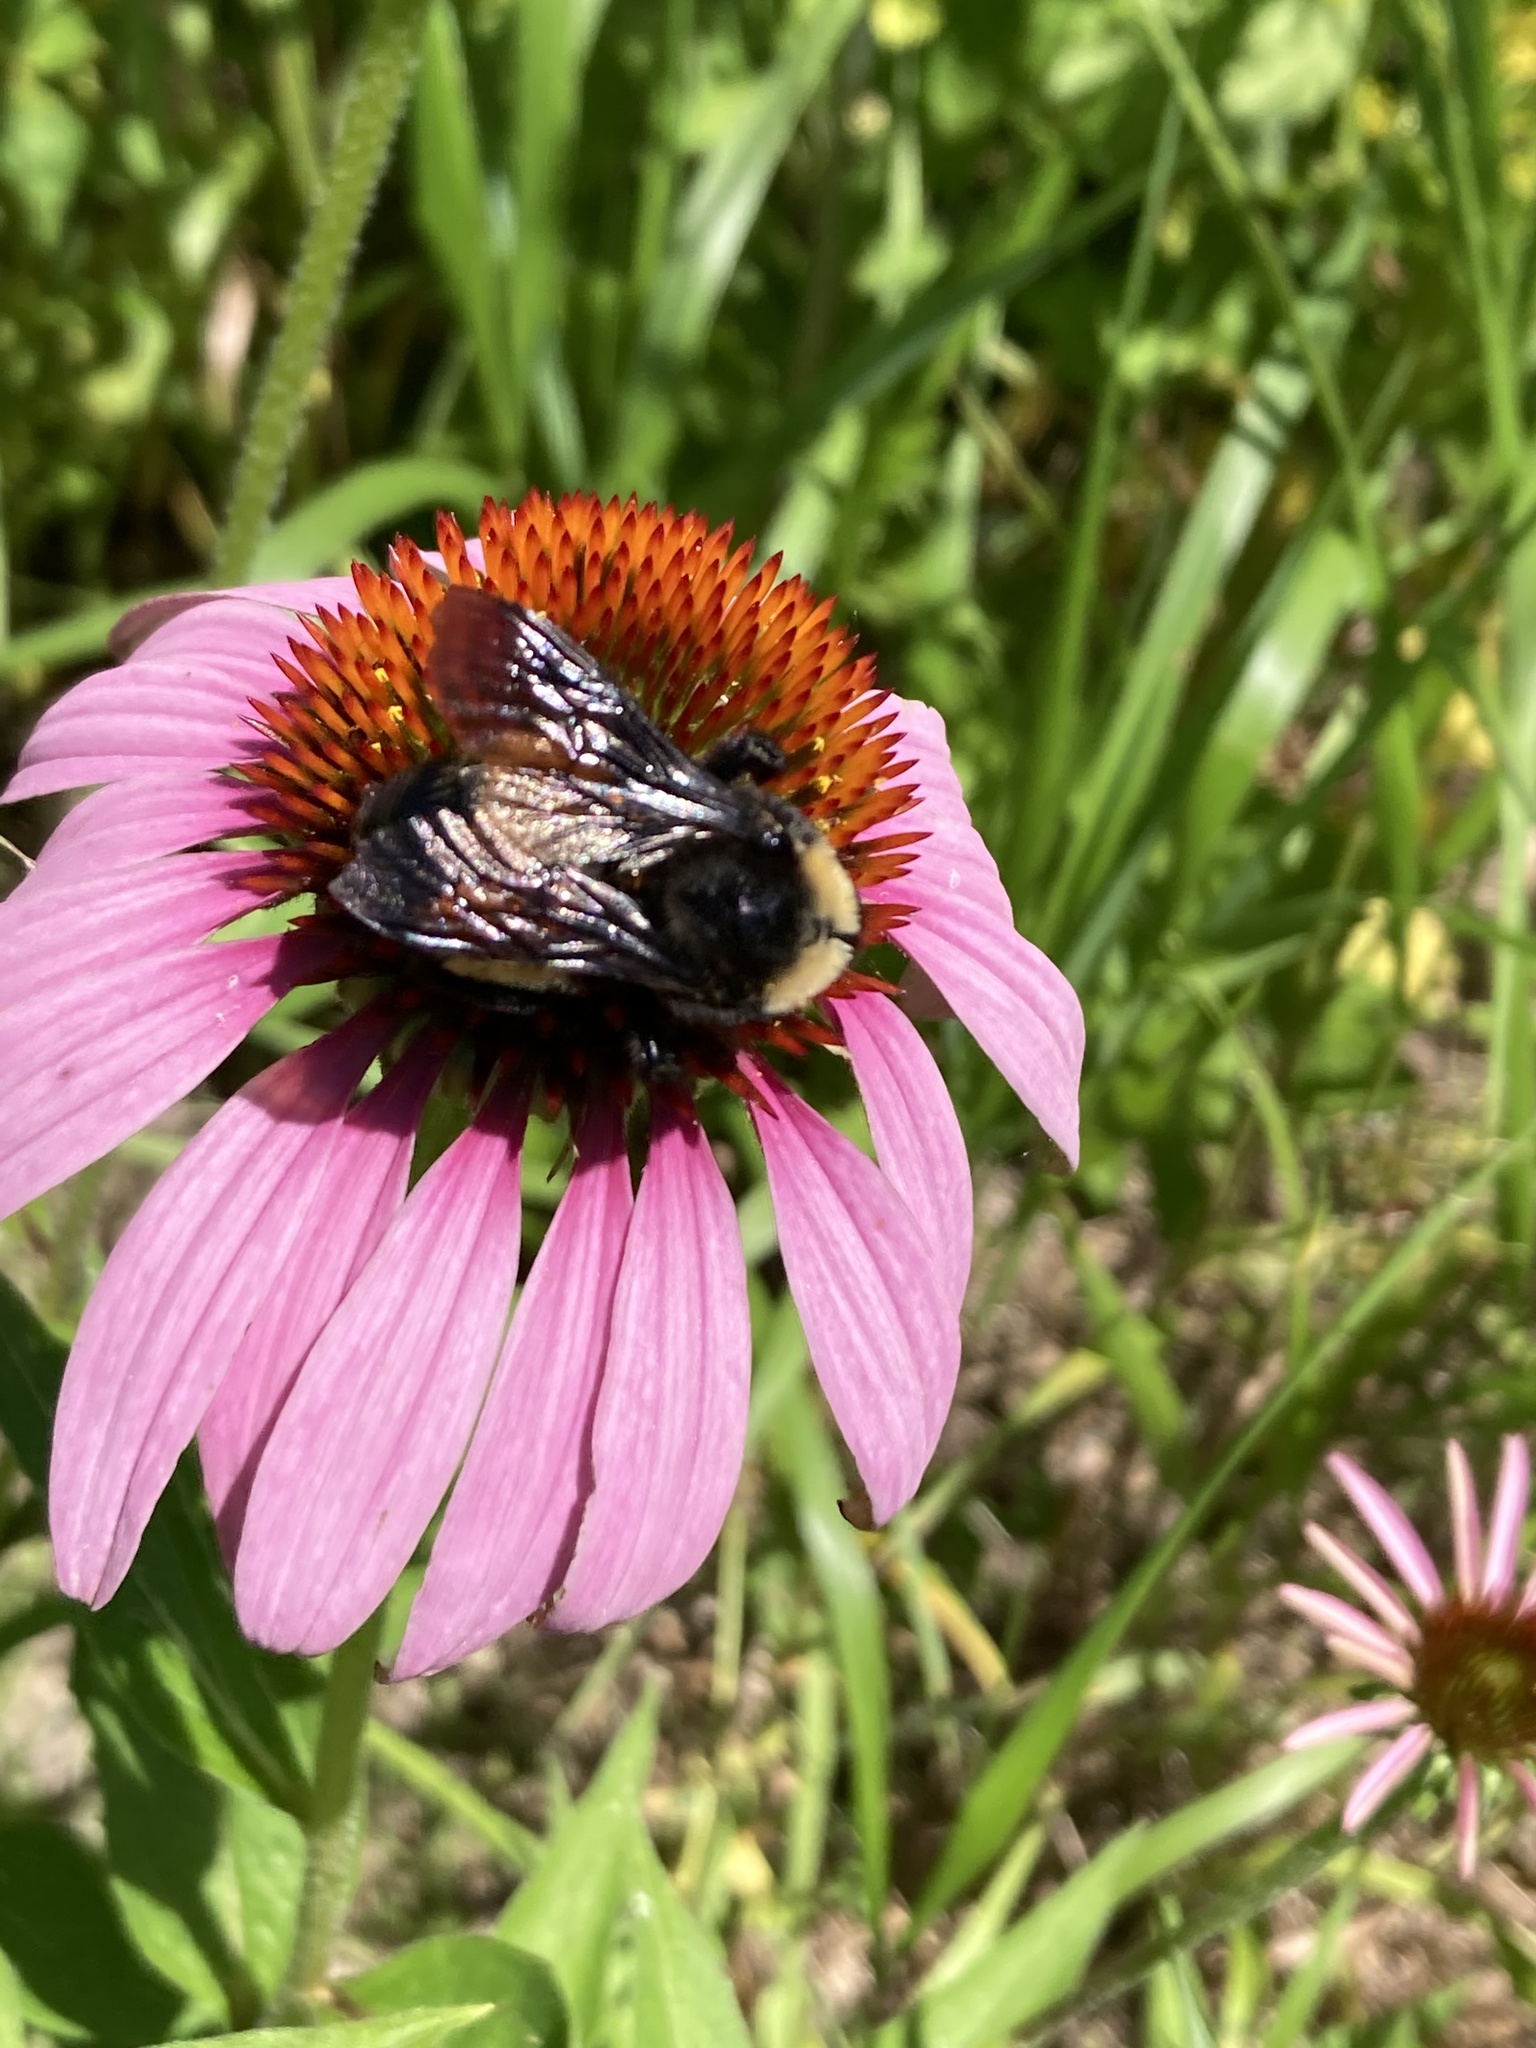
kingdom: Animalia
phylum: Arthropoda
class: Insecta
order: Hymenoptera
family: Apidae
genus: Bombus
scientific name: Bombus pensylvanicus
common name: Bumble bee
